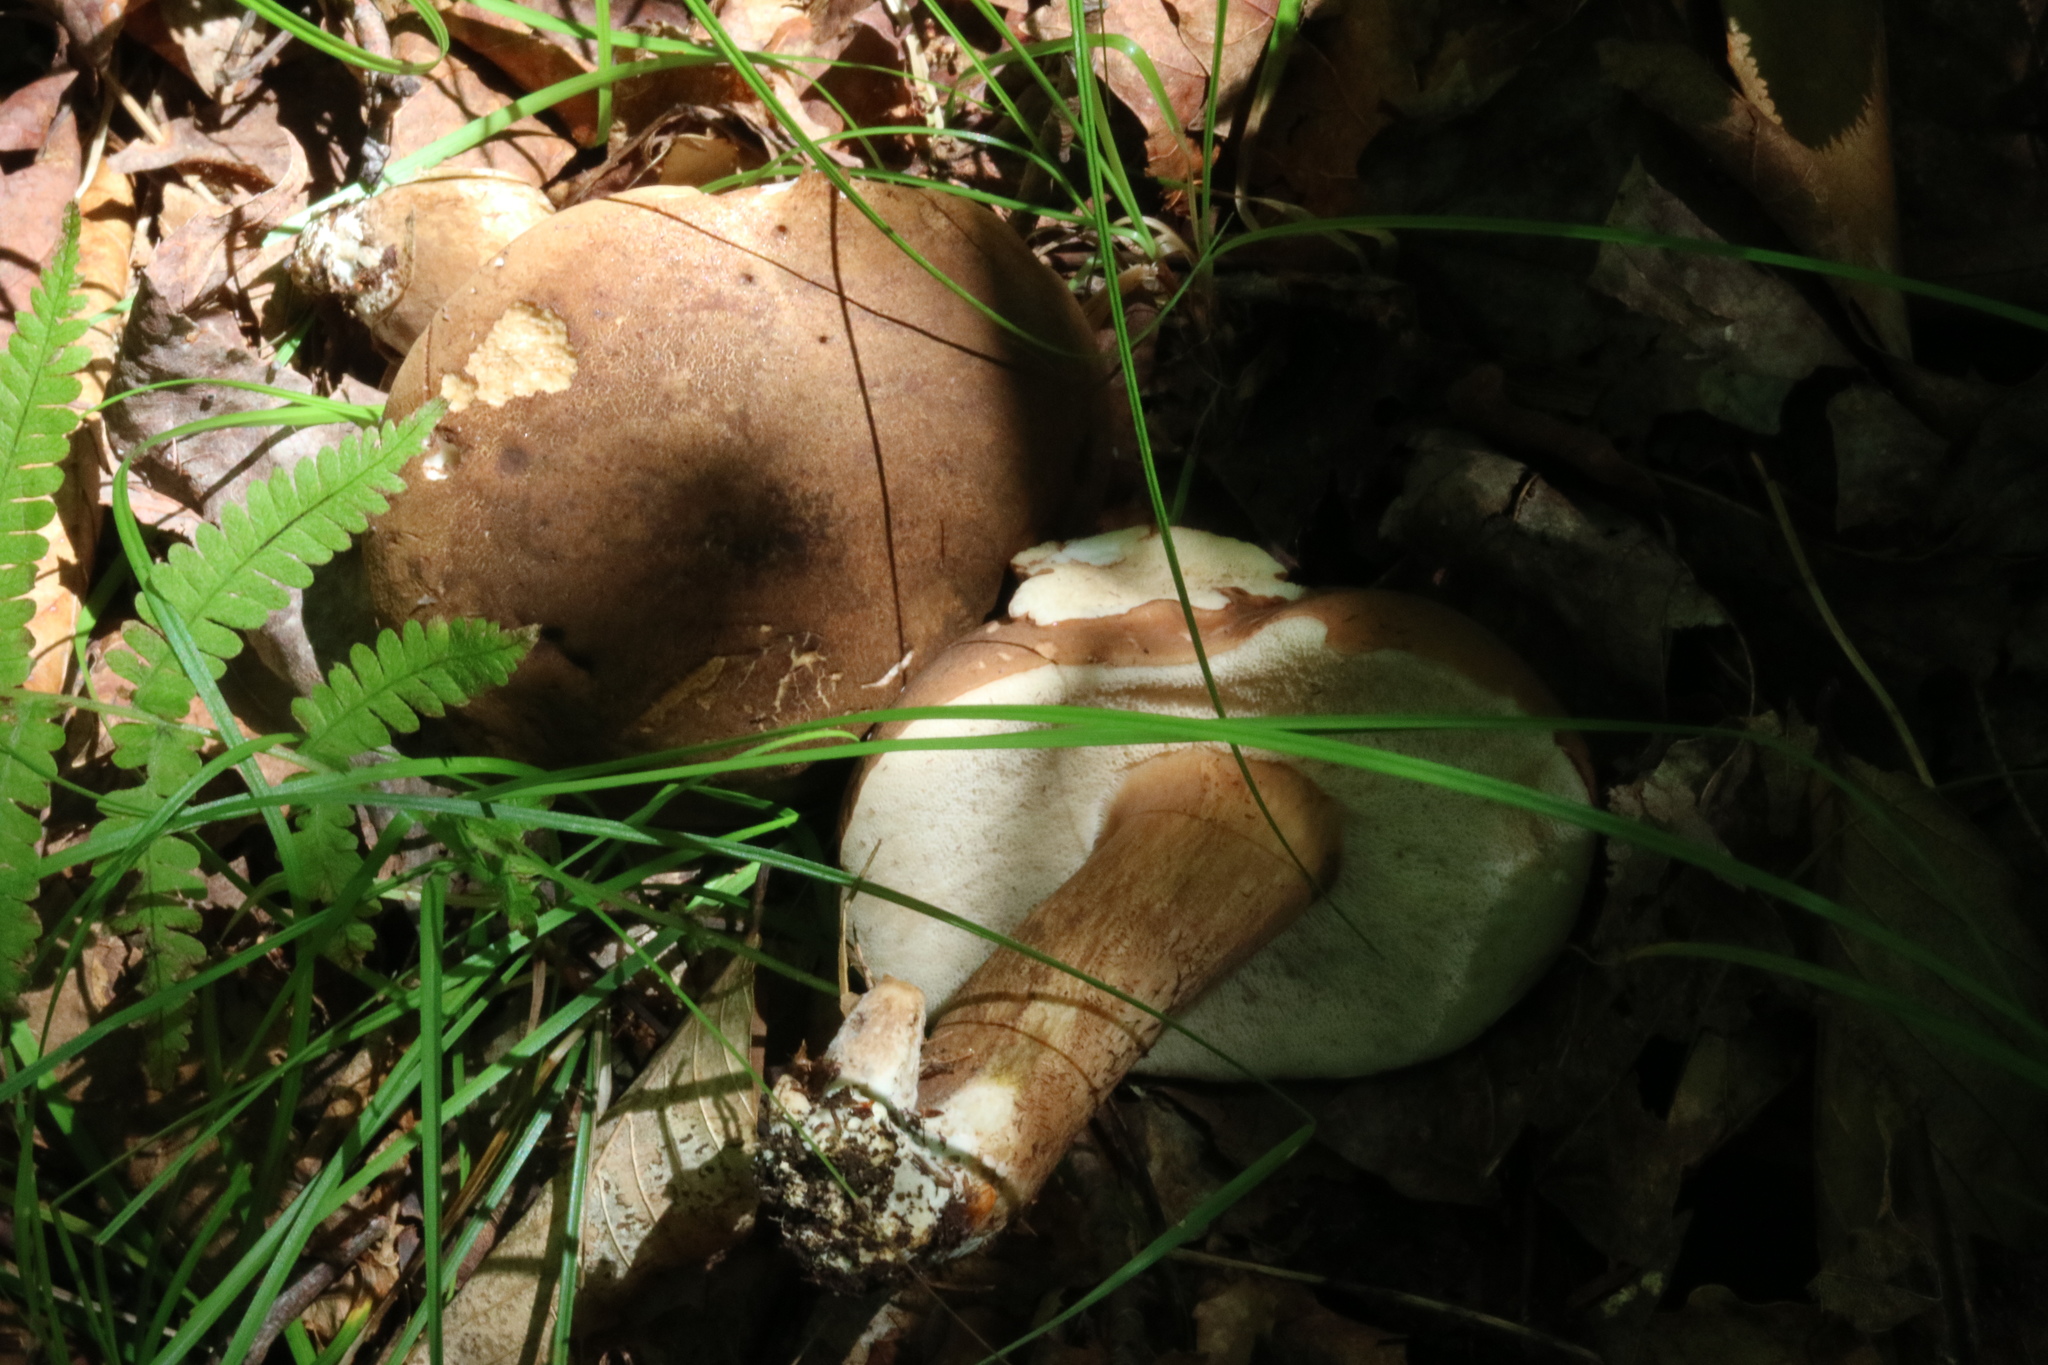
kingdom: Fungi
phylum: Basidiomycota
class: Agaricomycetes
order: Boletales
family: Boletaceae
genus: Tylopilus
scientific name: Tylopilus appalachiensis
